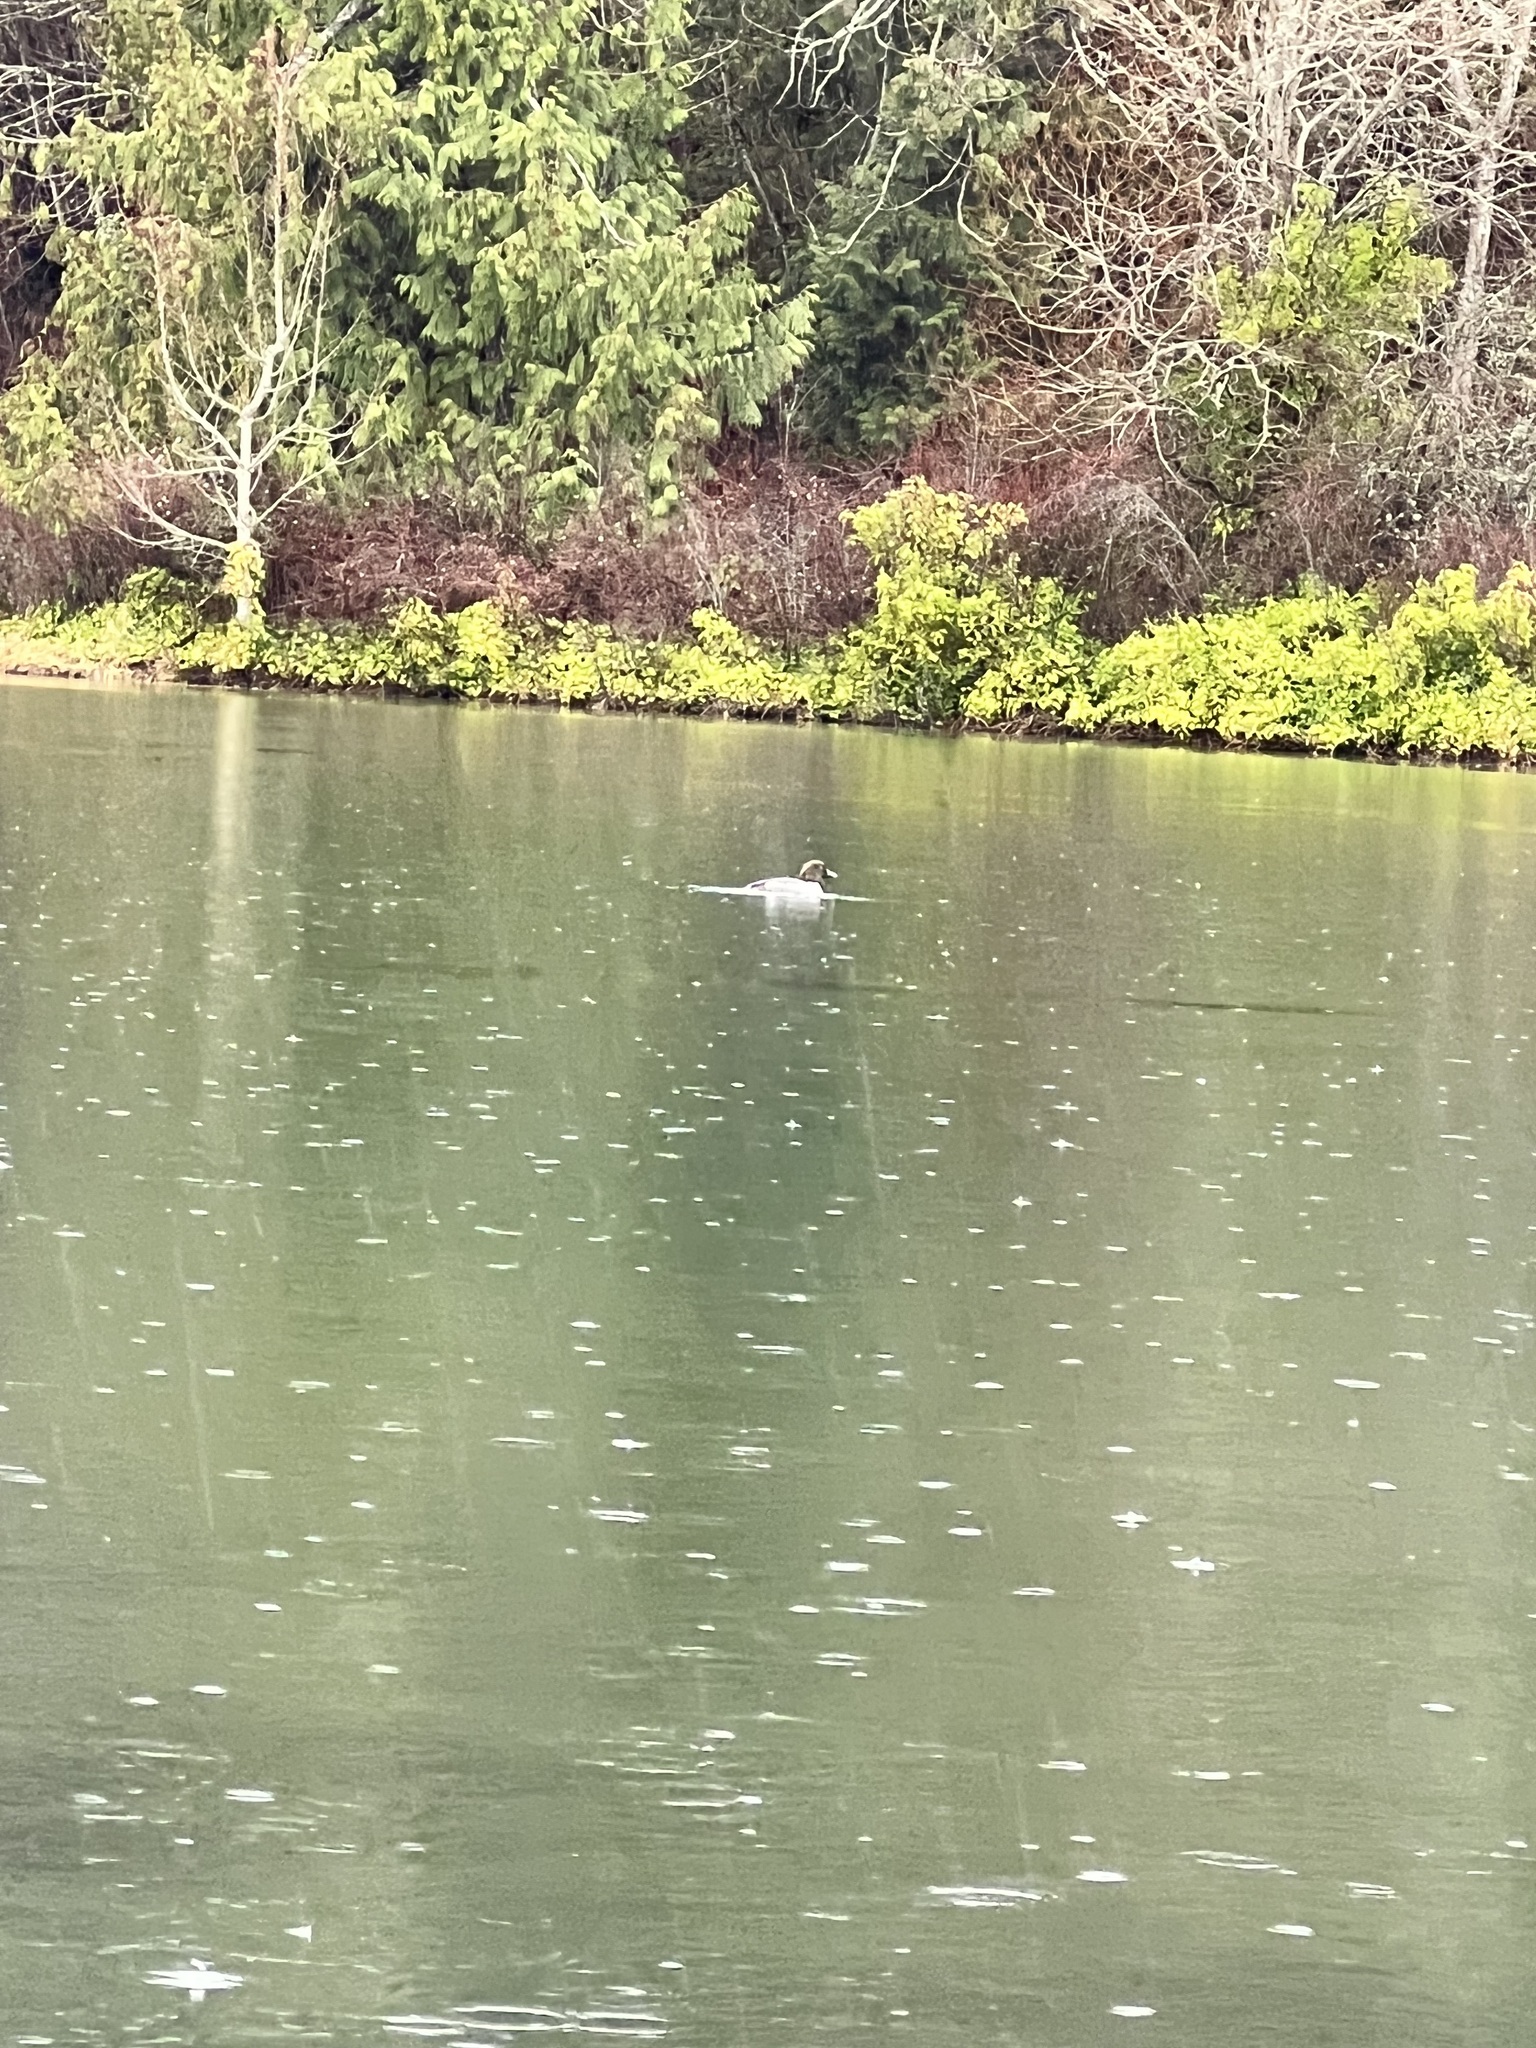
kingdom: Animalia
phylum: Chordata
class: Aves
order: Anseriformes
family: Anatidae
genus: Bucephala
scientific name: Bucephala clangula
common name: Common goldeneye
